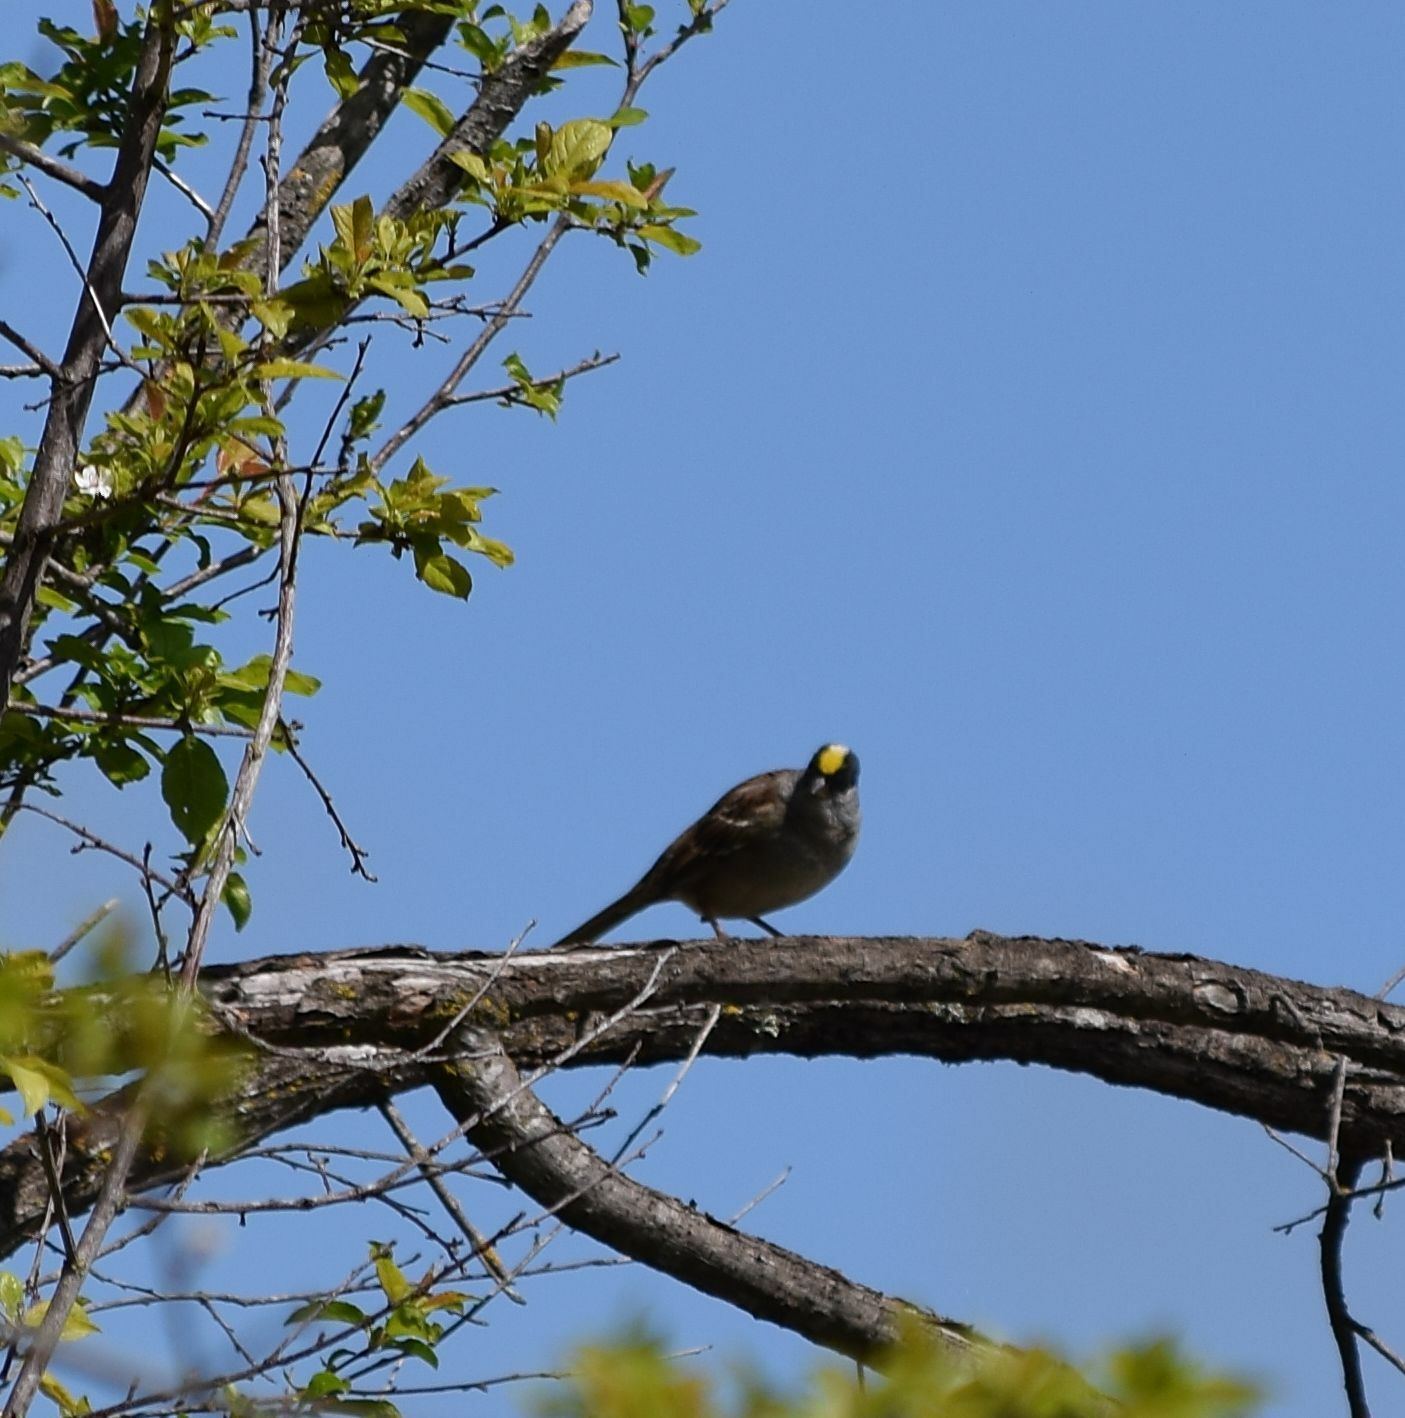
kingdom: Animalia
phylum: Chordata
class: Aves
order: Passeriformes
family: Passerellidae
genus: Zonotrichia
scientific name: Zonotrichia atricapilla
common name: Golden-crowned sparrow
